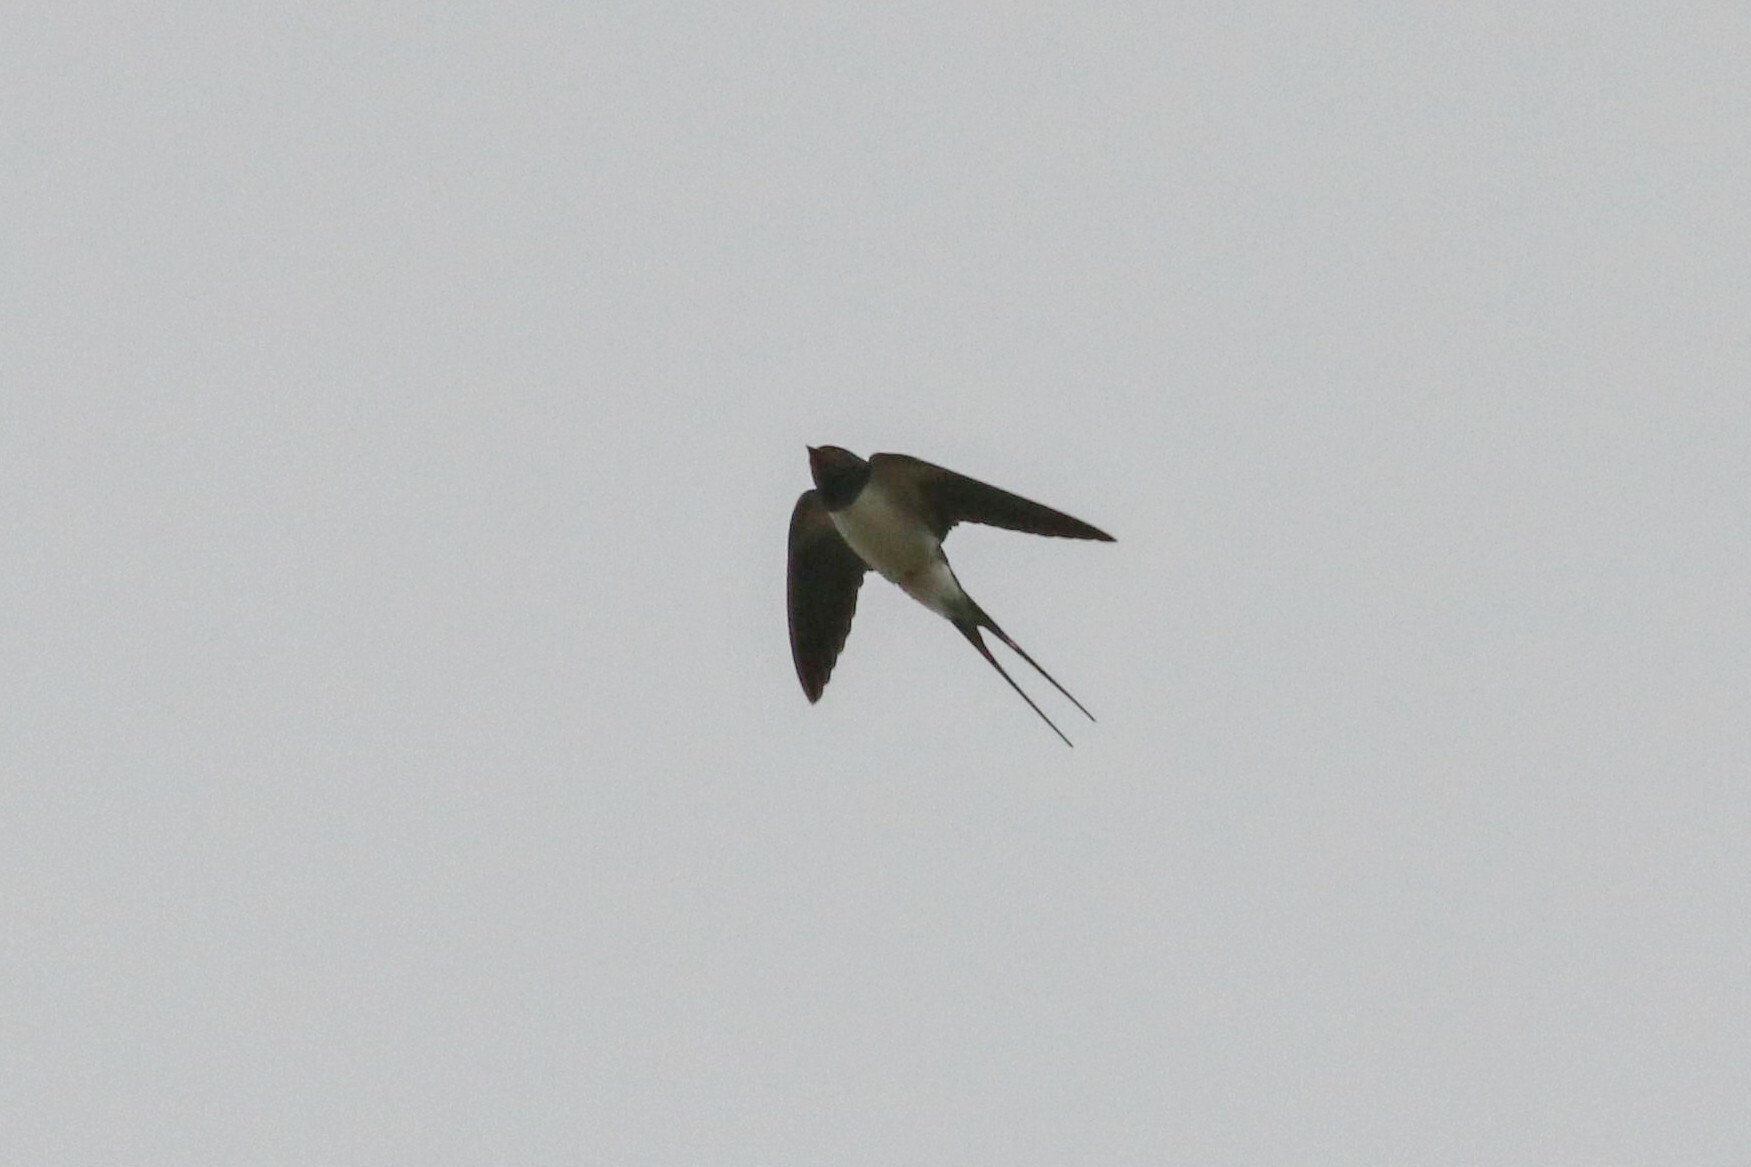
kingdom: Animalia
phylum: Chordata
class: Aves
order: Passeriformes
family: Hirundinidae
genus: Hirundo
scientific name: Hirundo rustica
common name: Barn swallow
